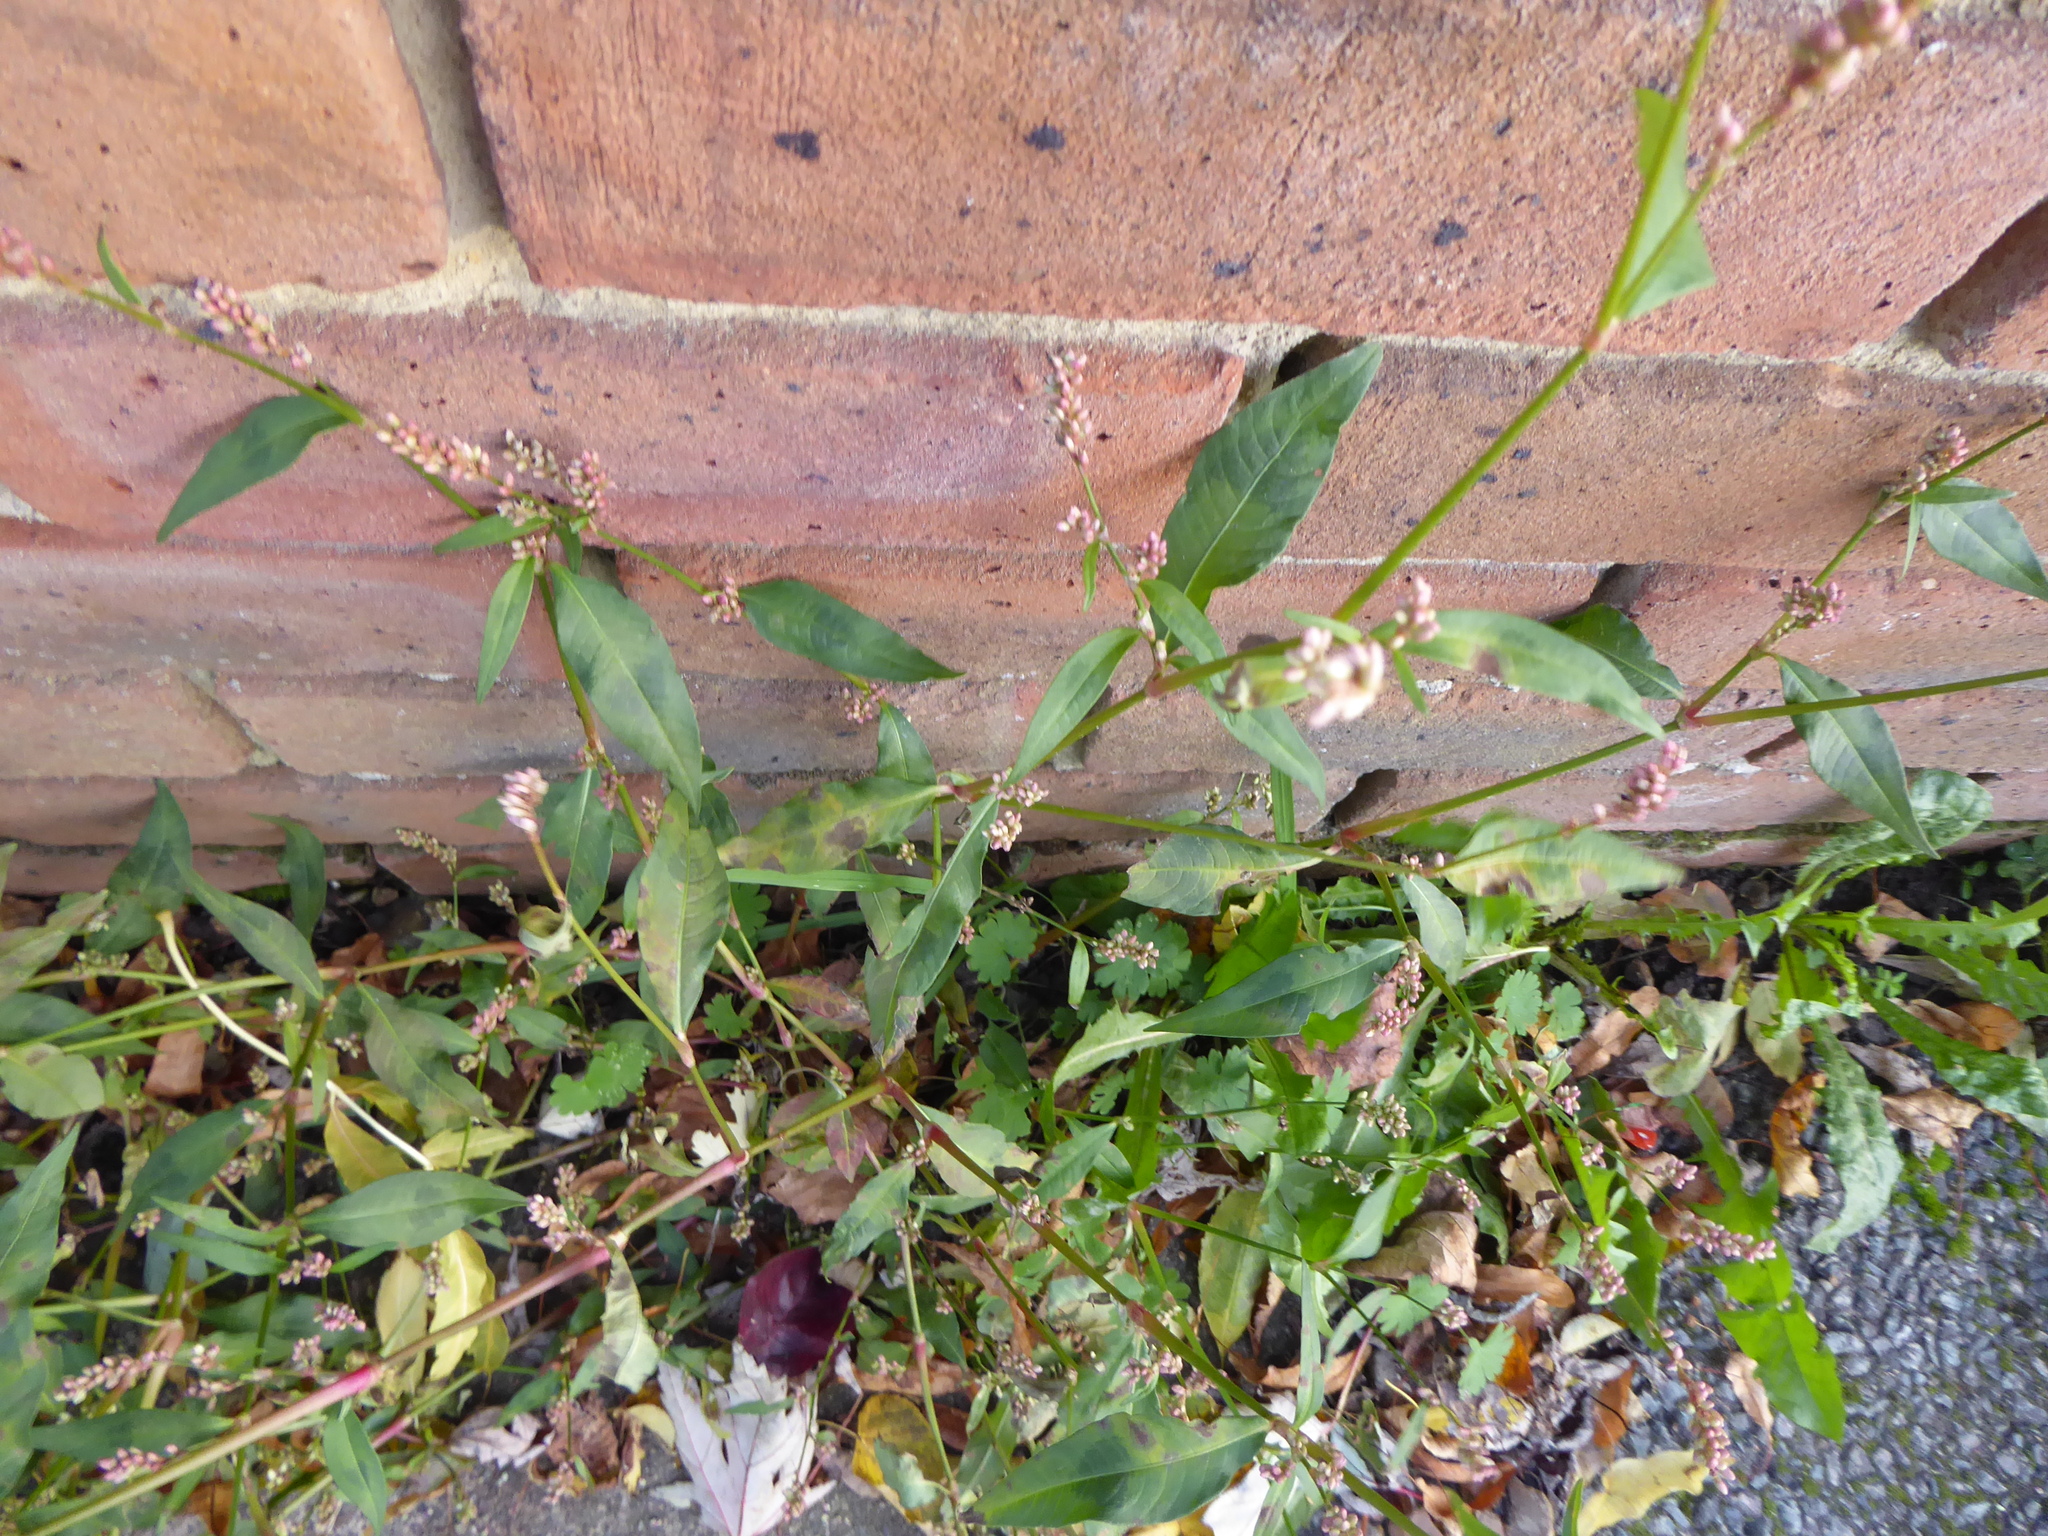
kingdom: Plantae
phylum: Tracheophyta
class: Magnoliopsida
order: Caryophyllales
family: Polygonaceae
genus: Persicaria
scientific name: Persicaria maculosa
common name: Redshank
